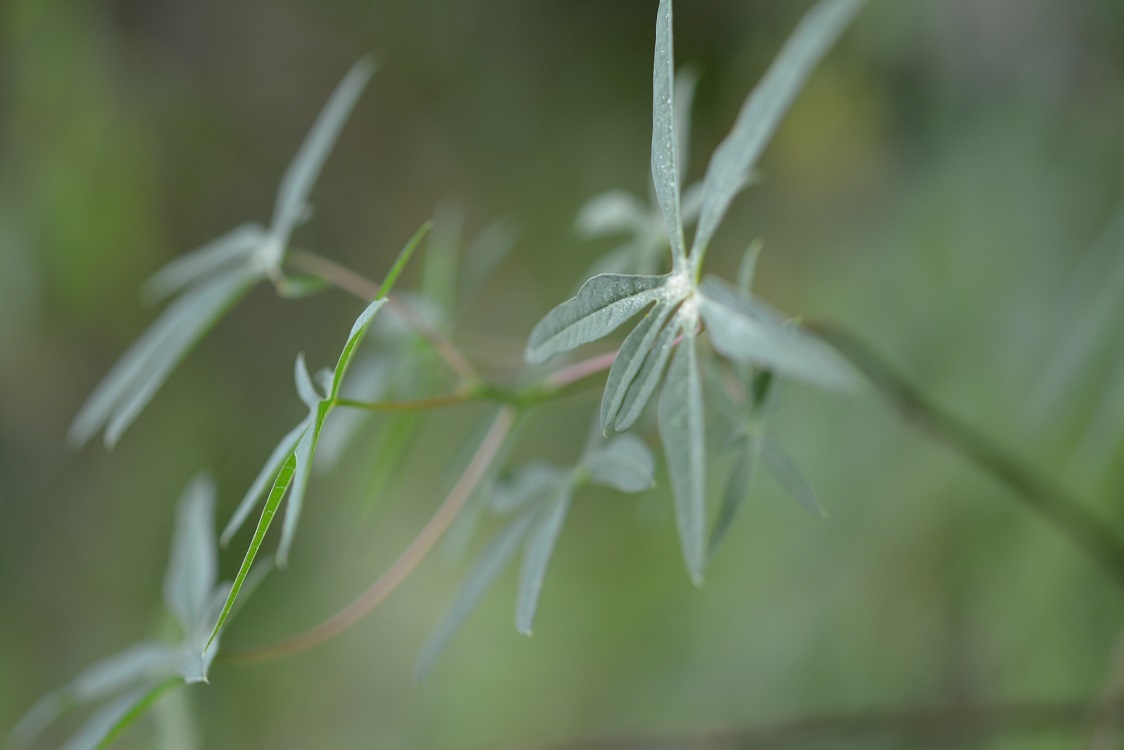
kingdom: Plantae
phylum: Tracheophyta
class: Magnoliopsida
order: Malpighiales
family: Euphorbiaceae
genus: Manihot
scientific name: Manihot angustiloba
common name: Desert mountain manihot
